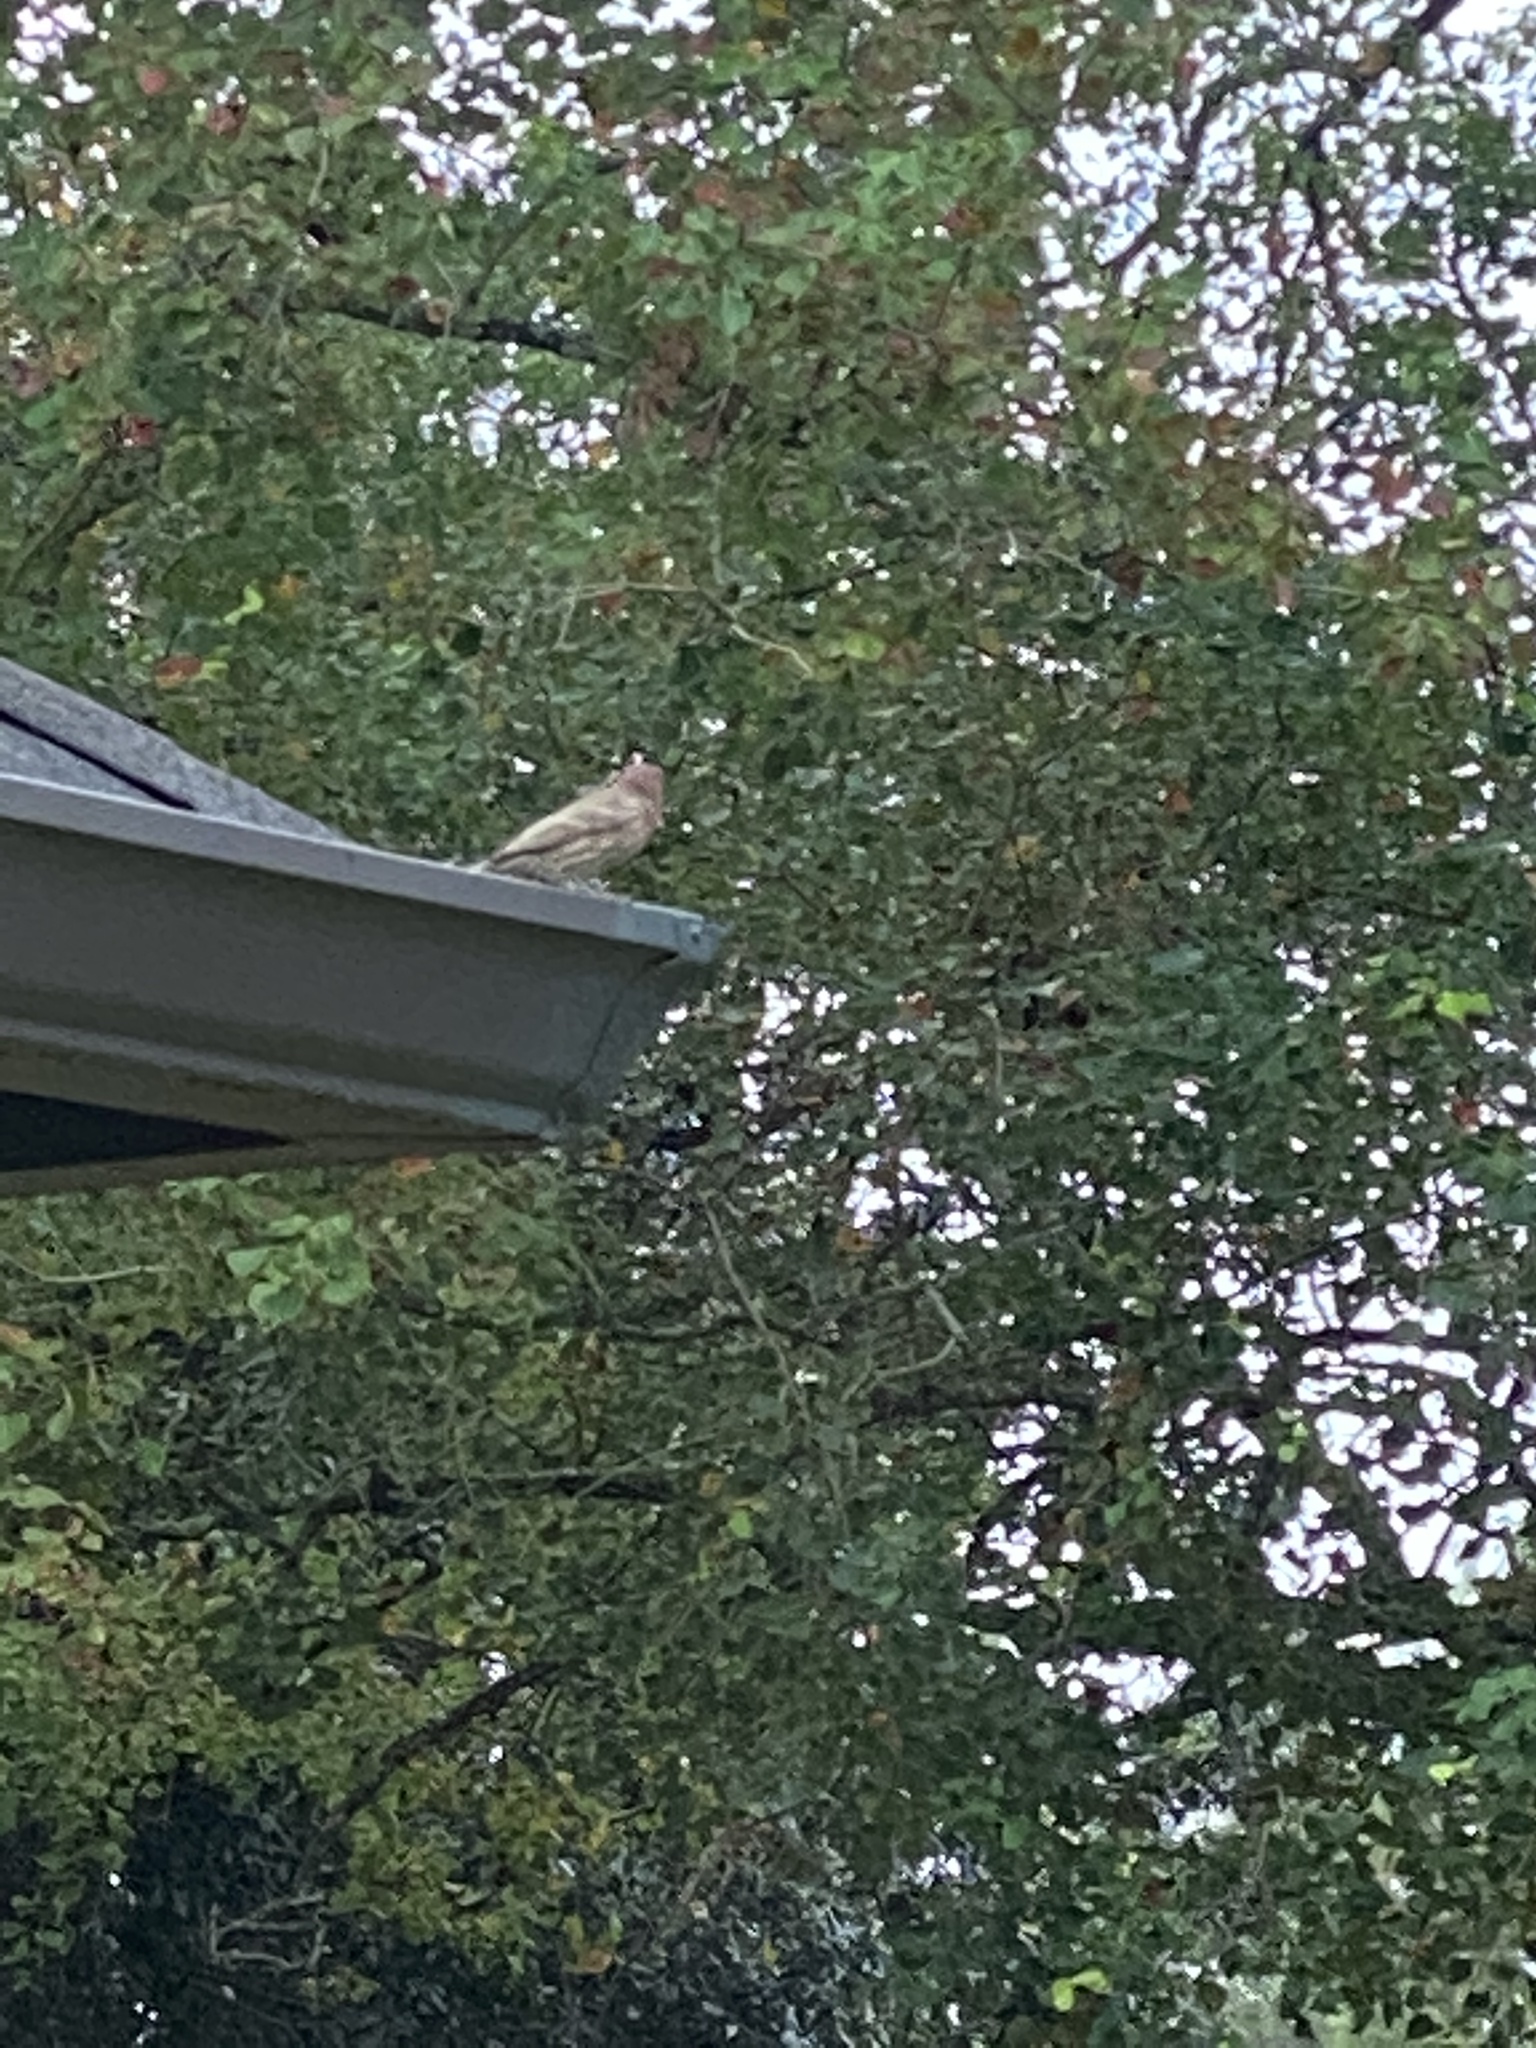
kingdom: Animalia
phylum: Chordata
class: Aves
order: Passeriformes
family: Fringillidae
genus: Haemorhous
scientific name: Haemorhous mexicanus
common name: House finch
